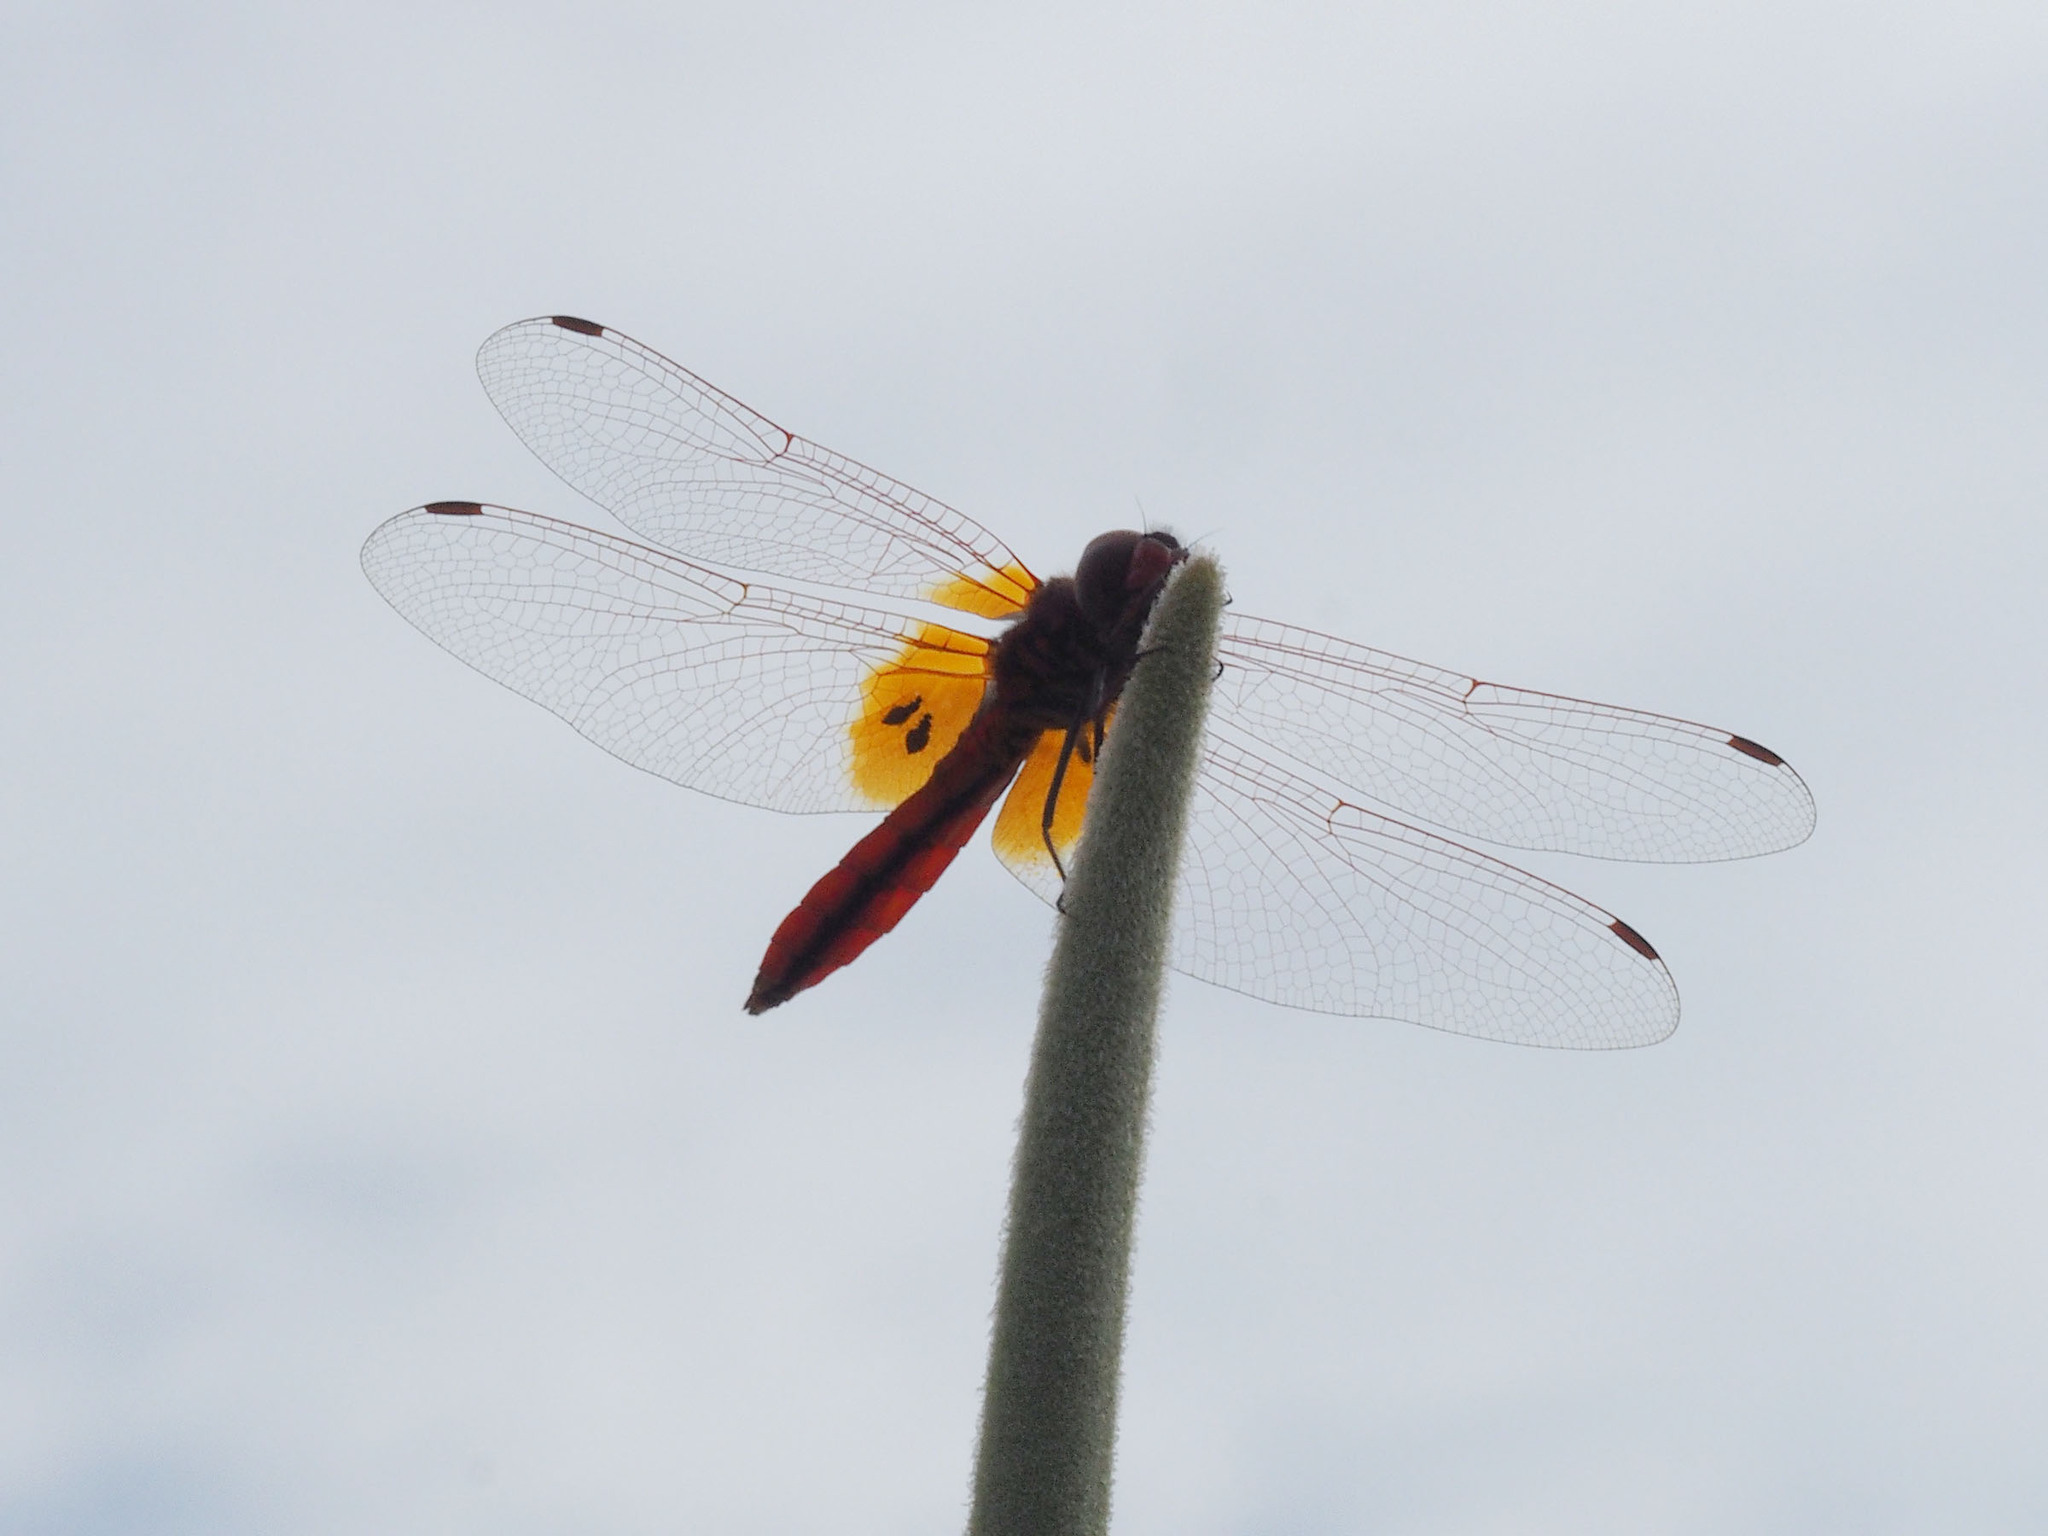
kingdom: Animalia
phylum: Arthropoda
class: Insecta
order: Odonata
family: Libellulidae
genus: Trithemis
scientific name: Trithemis aurora
